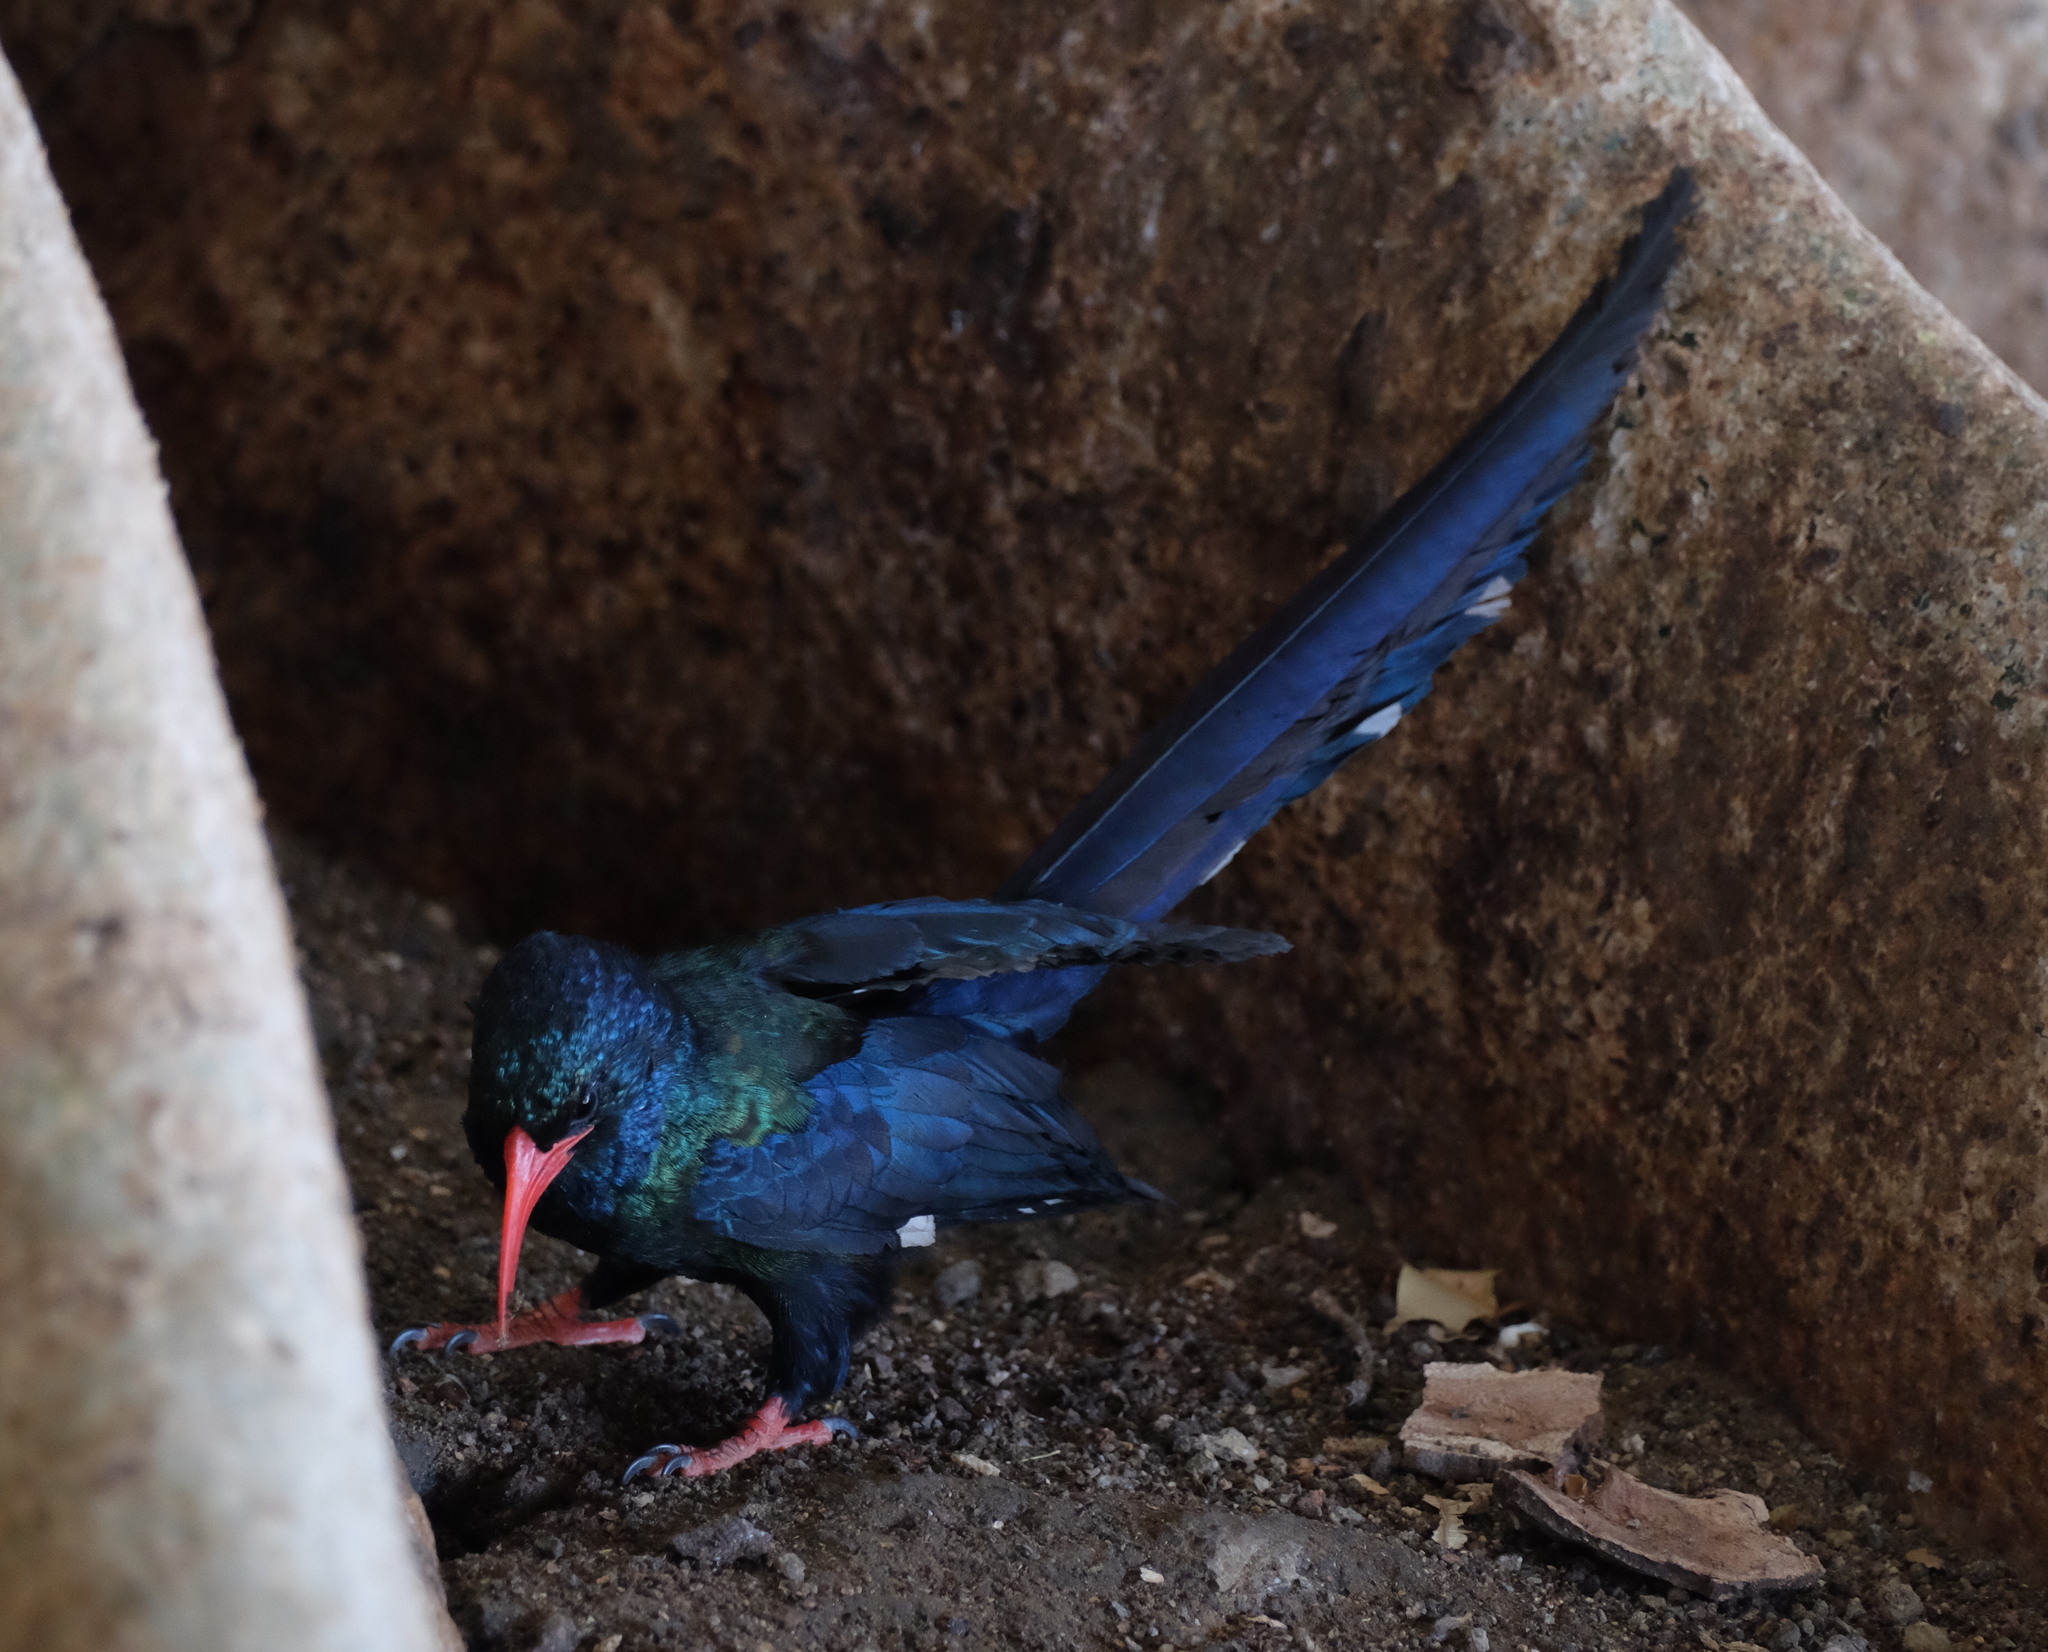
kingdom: Animalia
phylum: Chordata
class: Aves
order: Bucerotiformes
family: Phoeniculidae
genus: Phoeniculus
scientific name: Phoeniculus purpureus
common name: Green woodhoopoe
